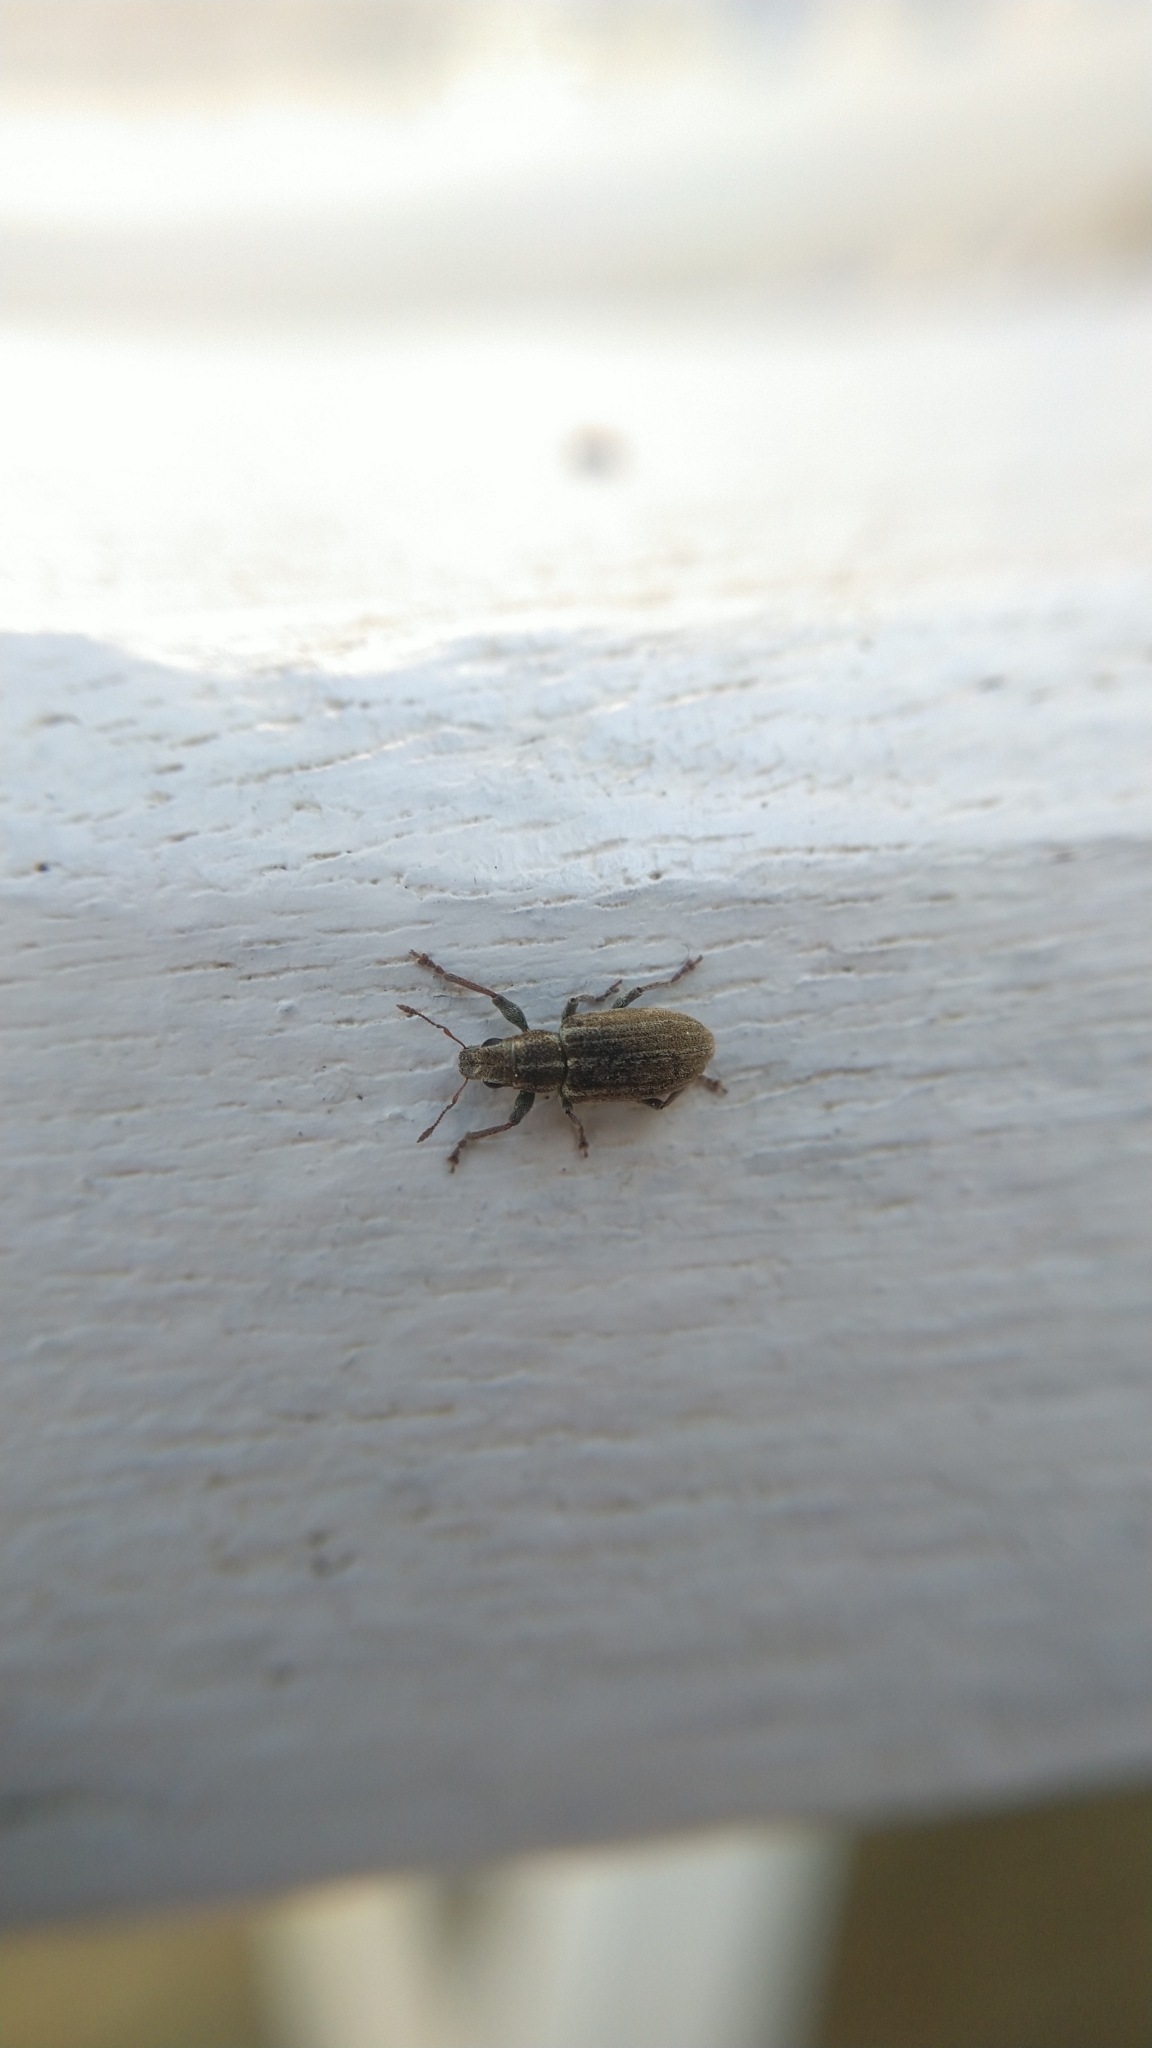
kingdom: Animalia
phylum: Arthropoda
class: Insecta
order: Coleoptera
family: Curculionidae
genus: Sitona
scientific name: Sitona lineatus
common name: Weevil
